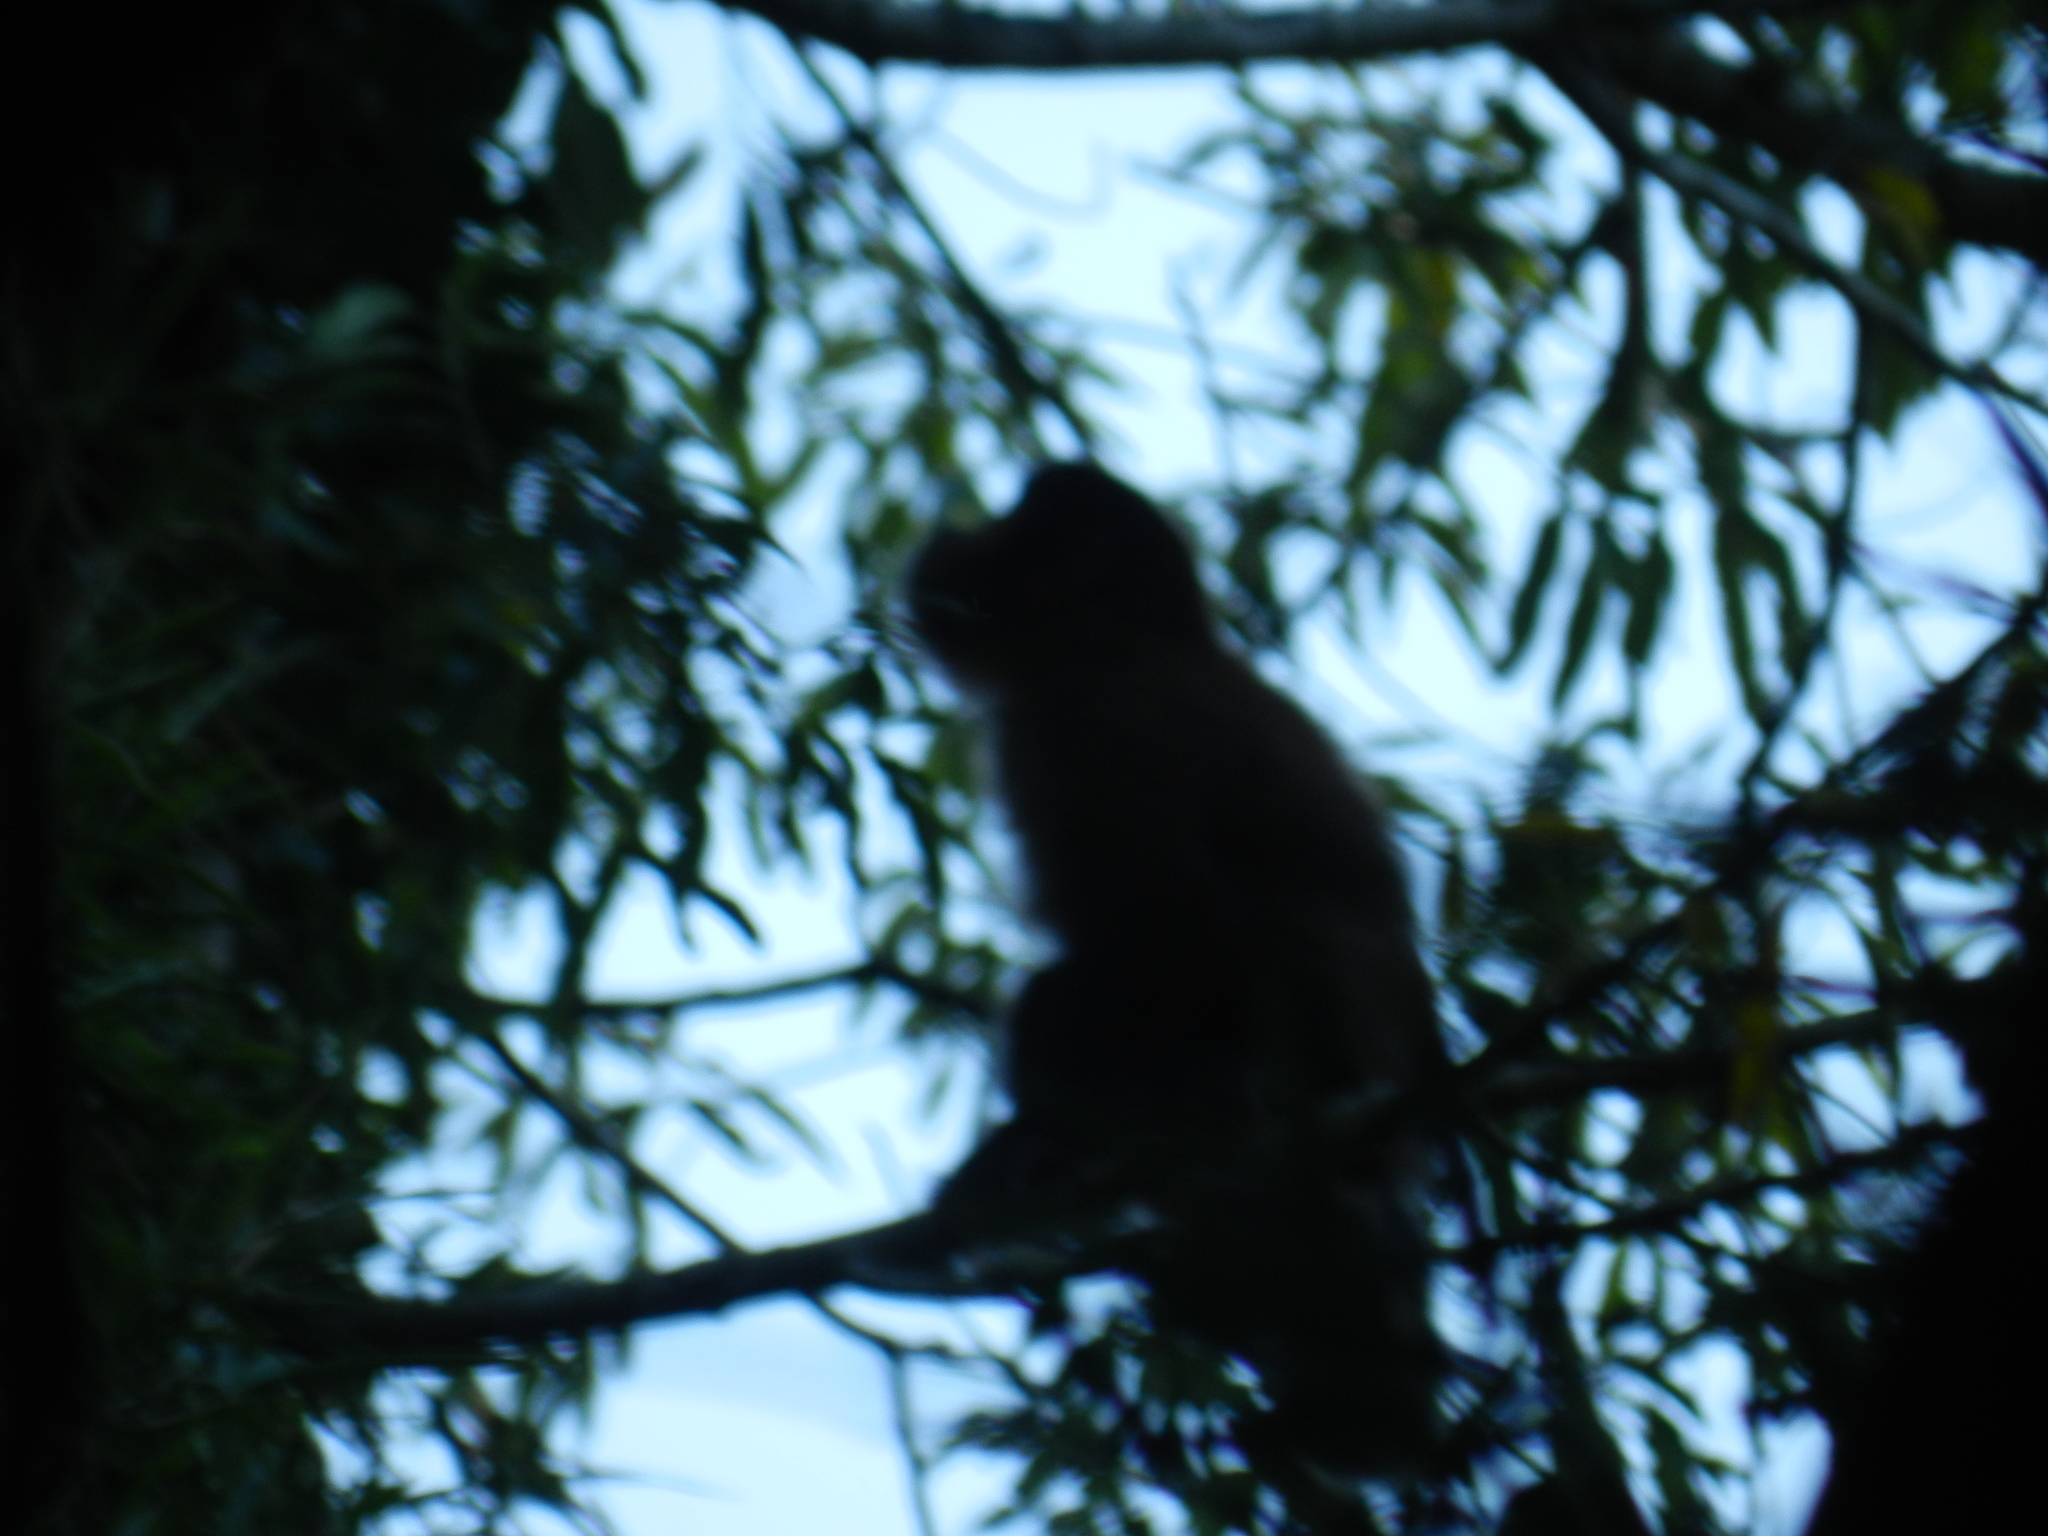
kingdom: Animalia
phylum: Chordata
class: Mammalia
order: Primates
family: Cebidae
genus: Sapajus
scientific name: Sapajus nigritus
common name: Black capuchin
